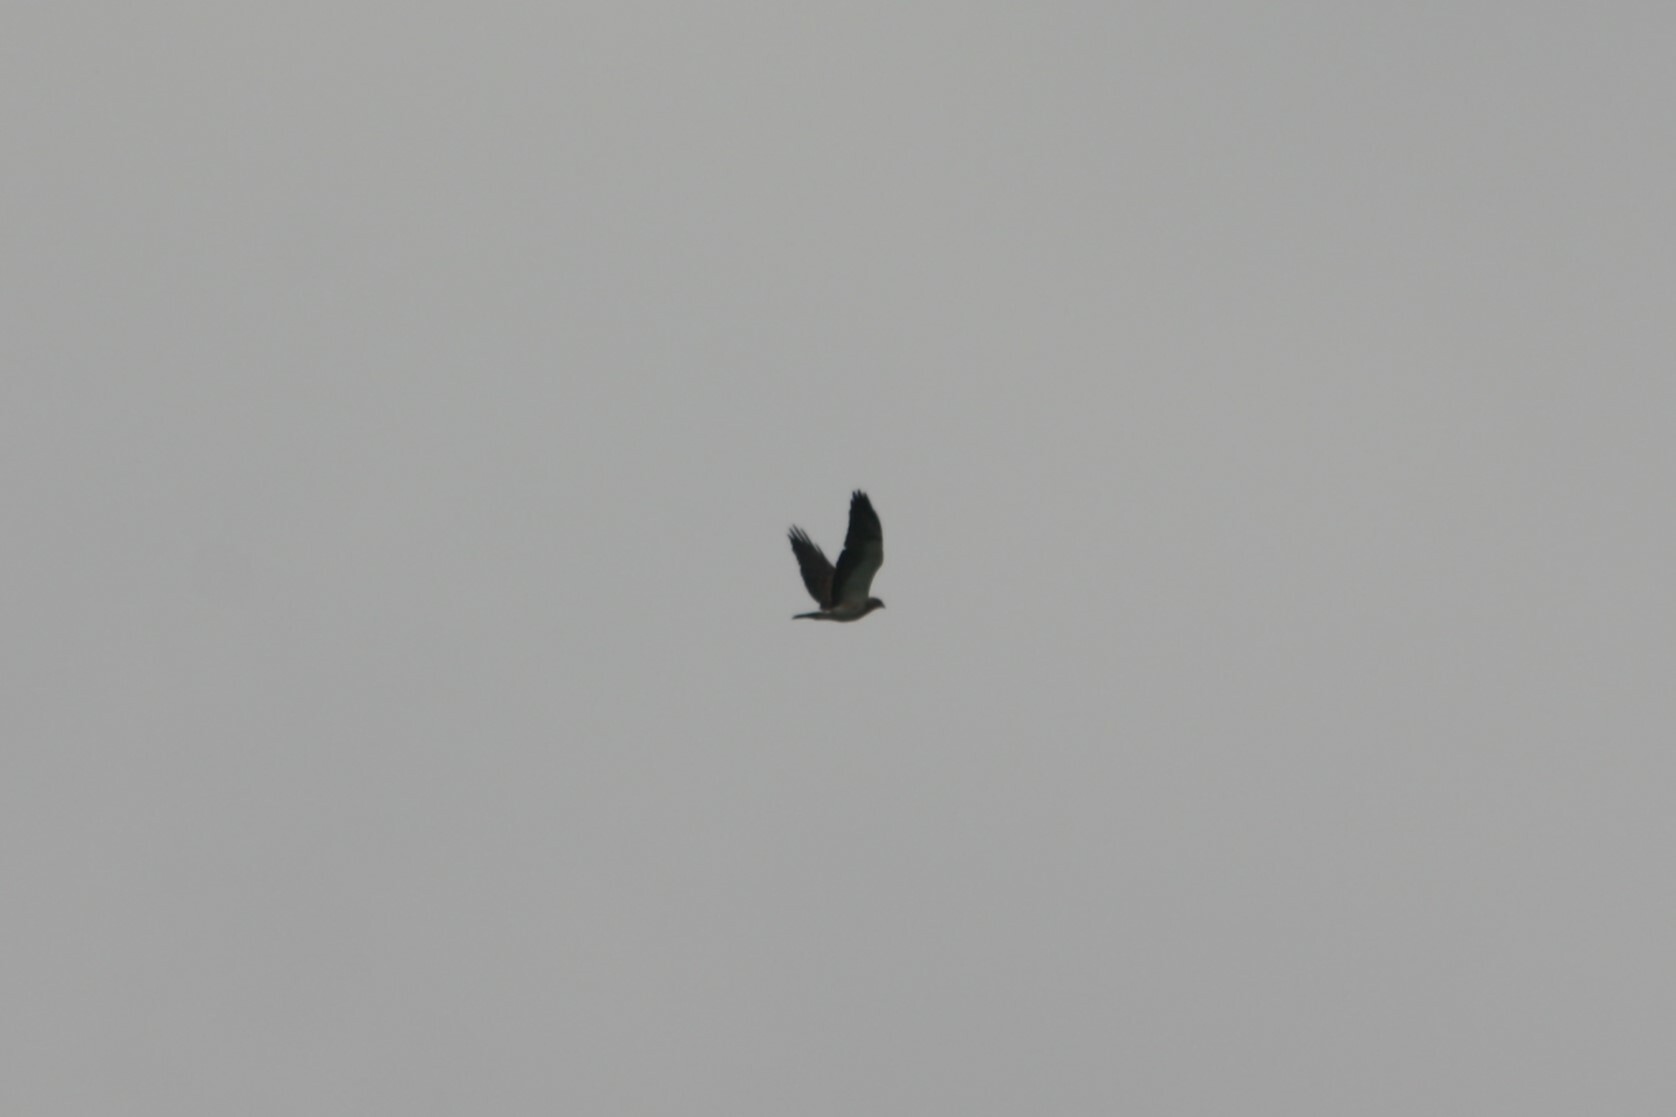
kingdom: Animalia
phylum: Chordata
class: Aves
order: Accipitriformes
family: Accipitridae
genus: Buteo
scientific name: Buteo swainsoni
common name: Swainson's hawk
